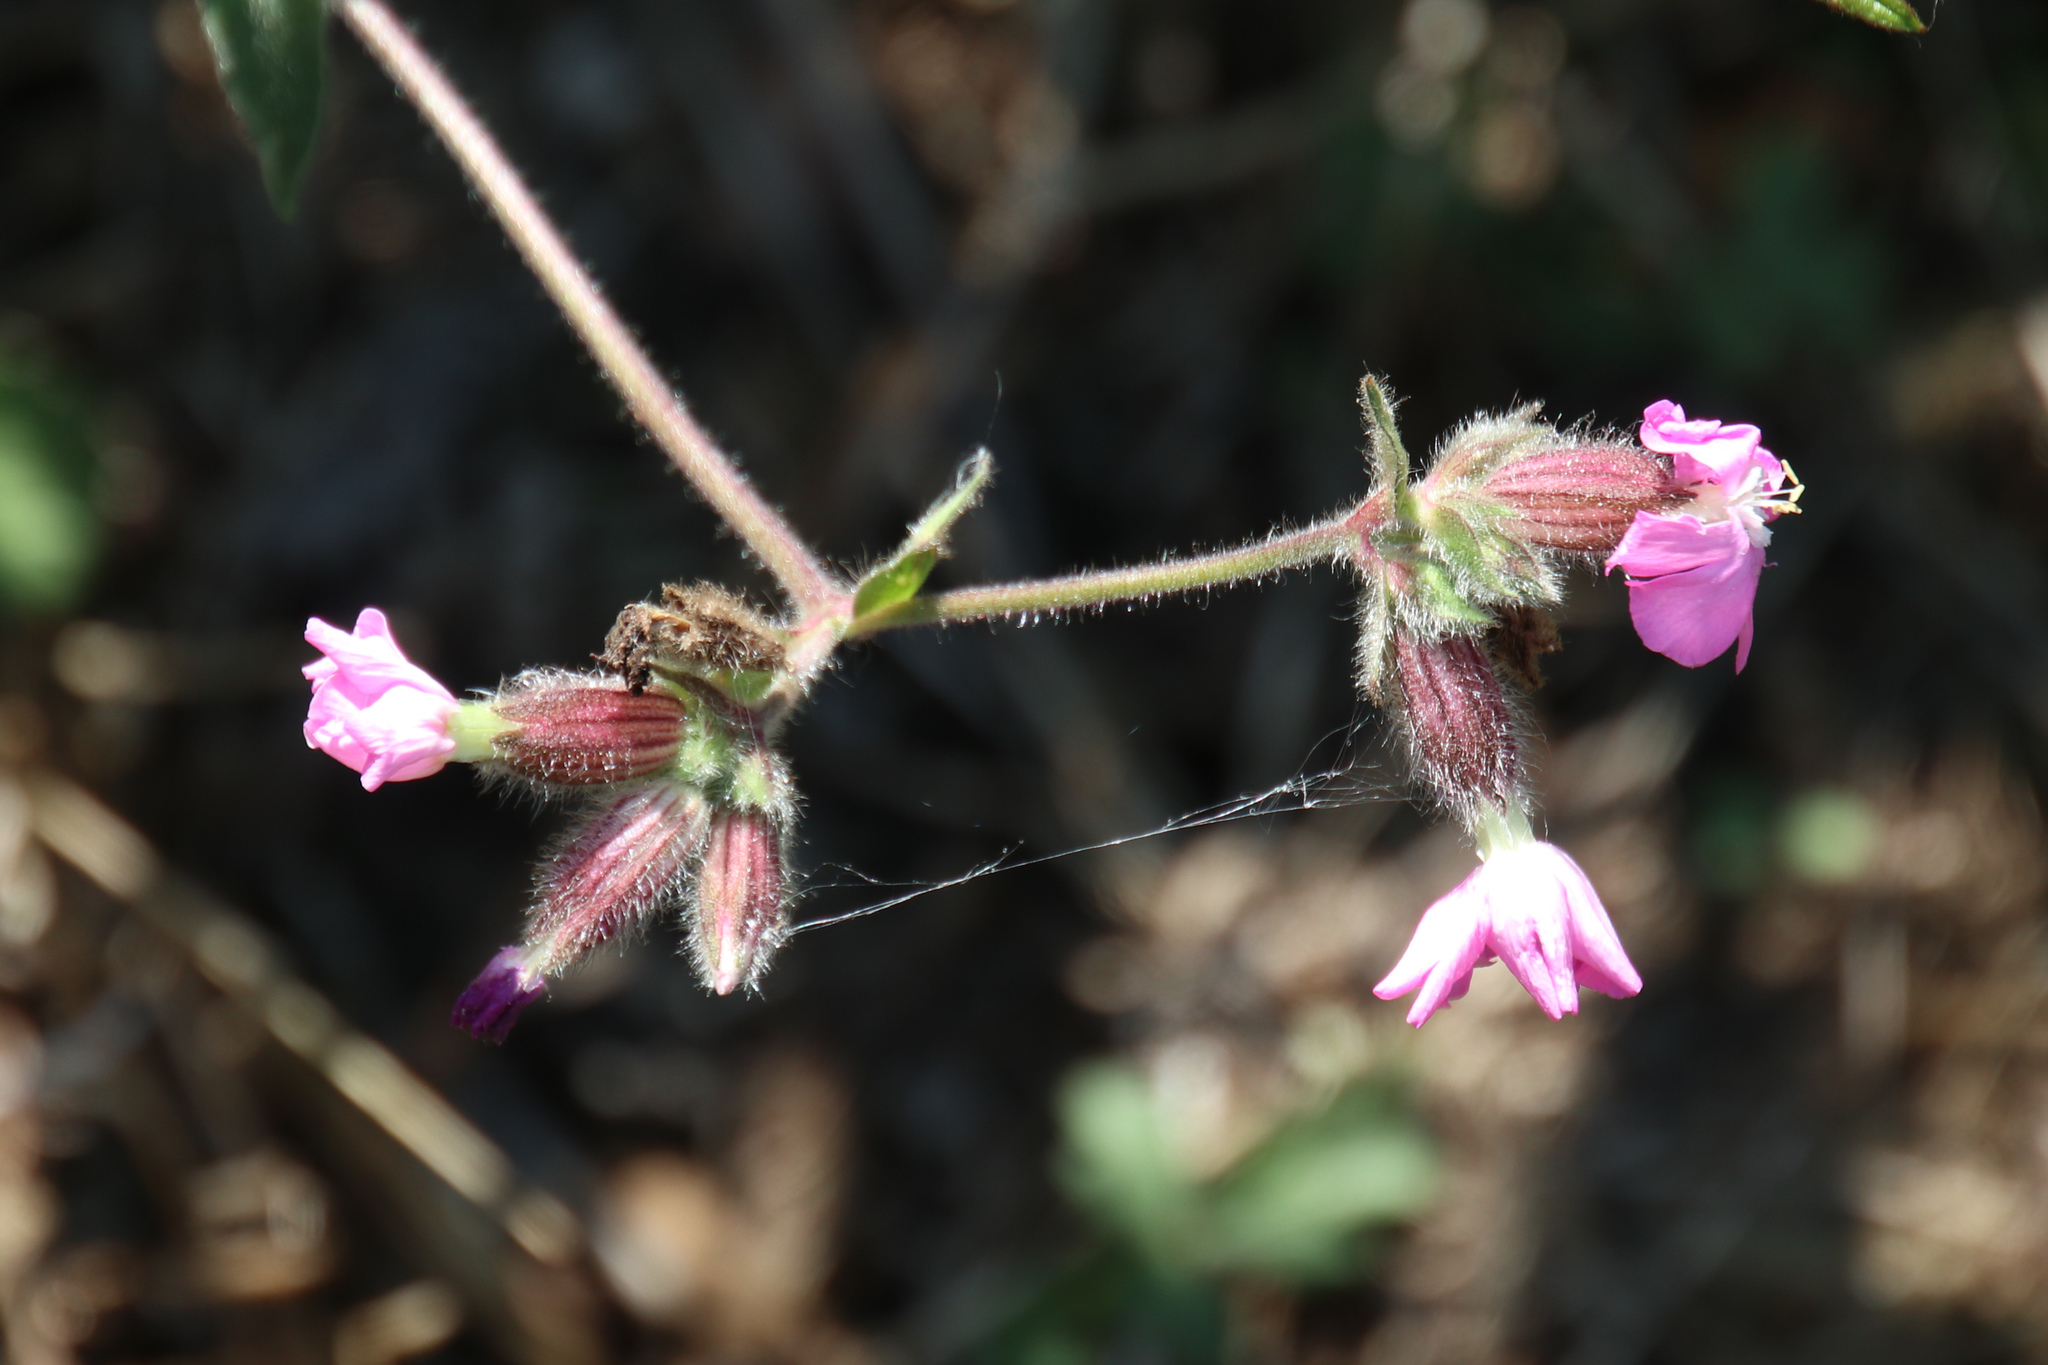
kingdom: Plantae
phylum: Tracheophyta
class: Magnoliopsida
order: Caryophyllales
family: Caryophyllaceae
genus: Silene
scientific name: Silene dioica
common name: Red campion
